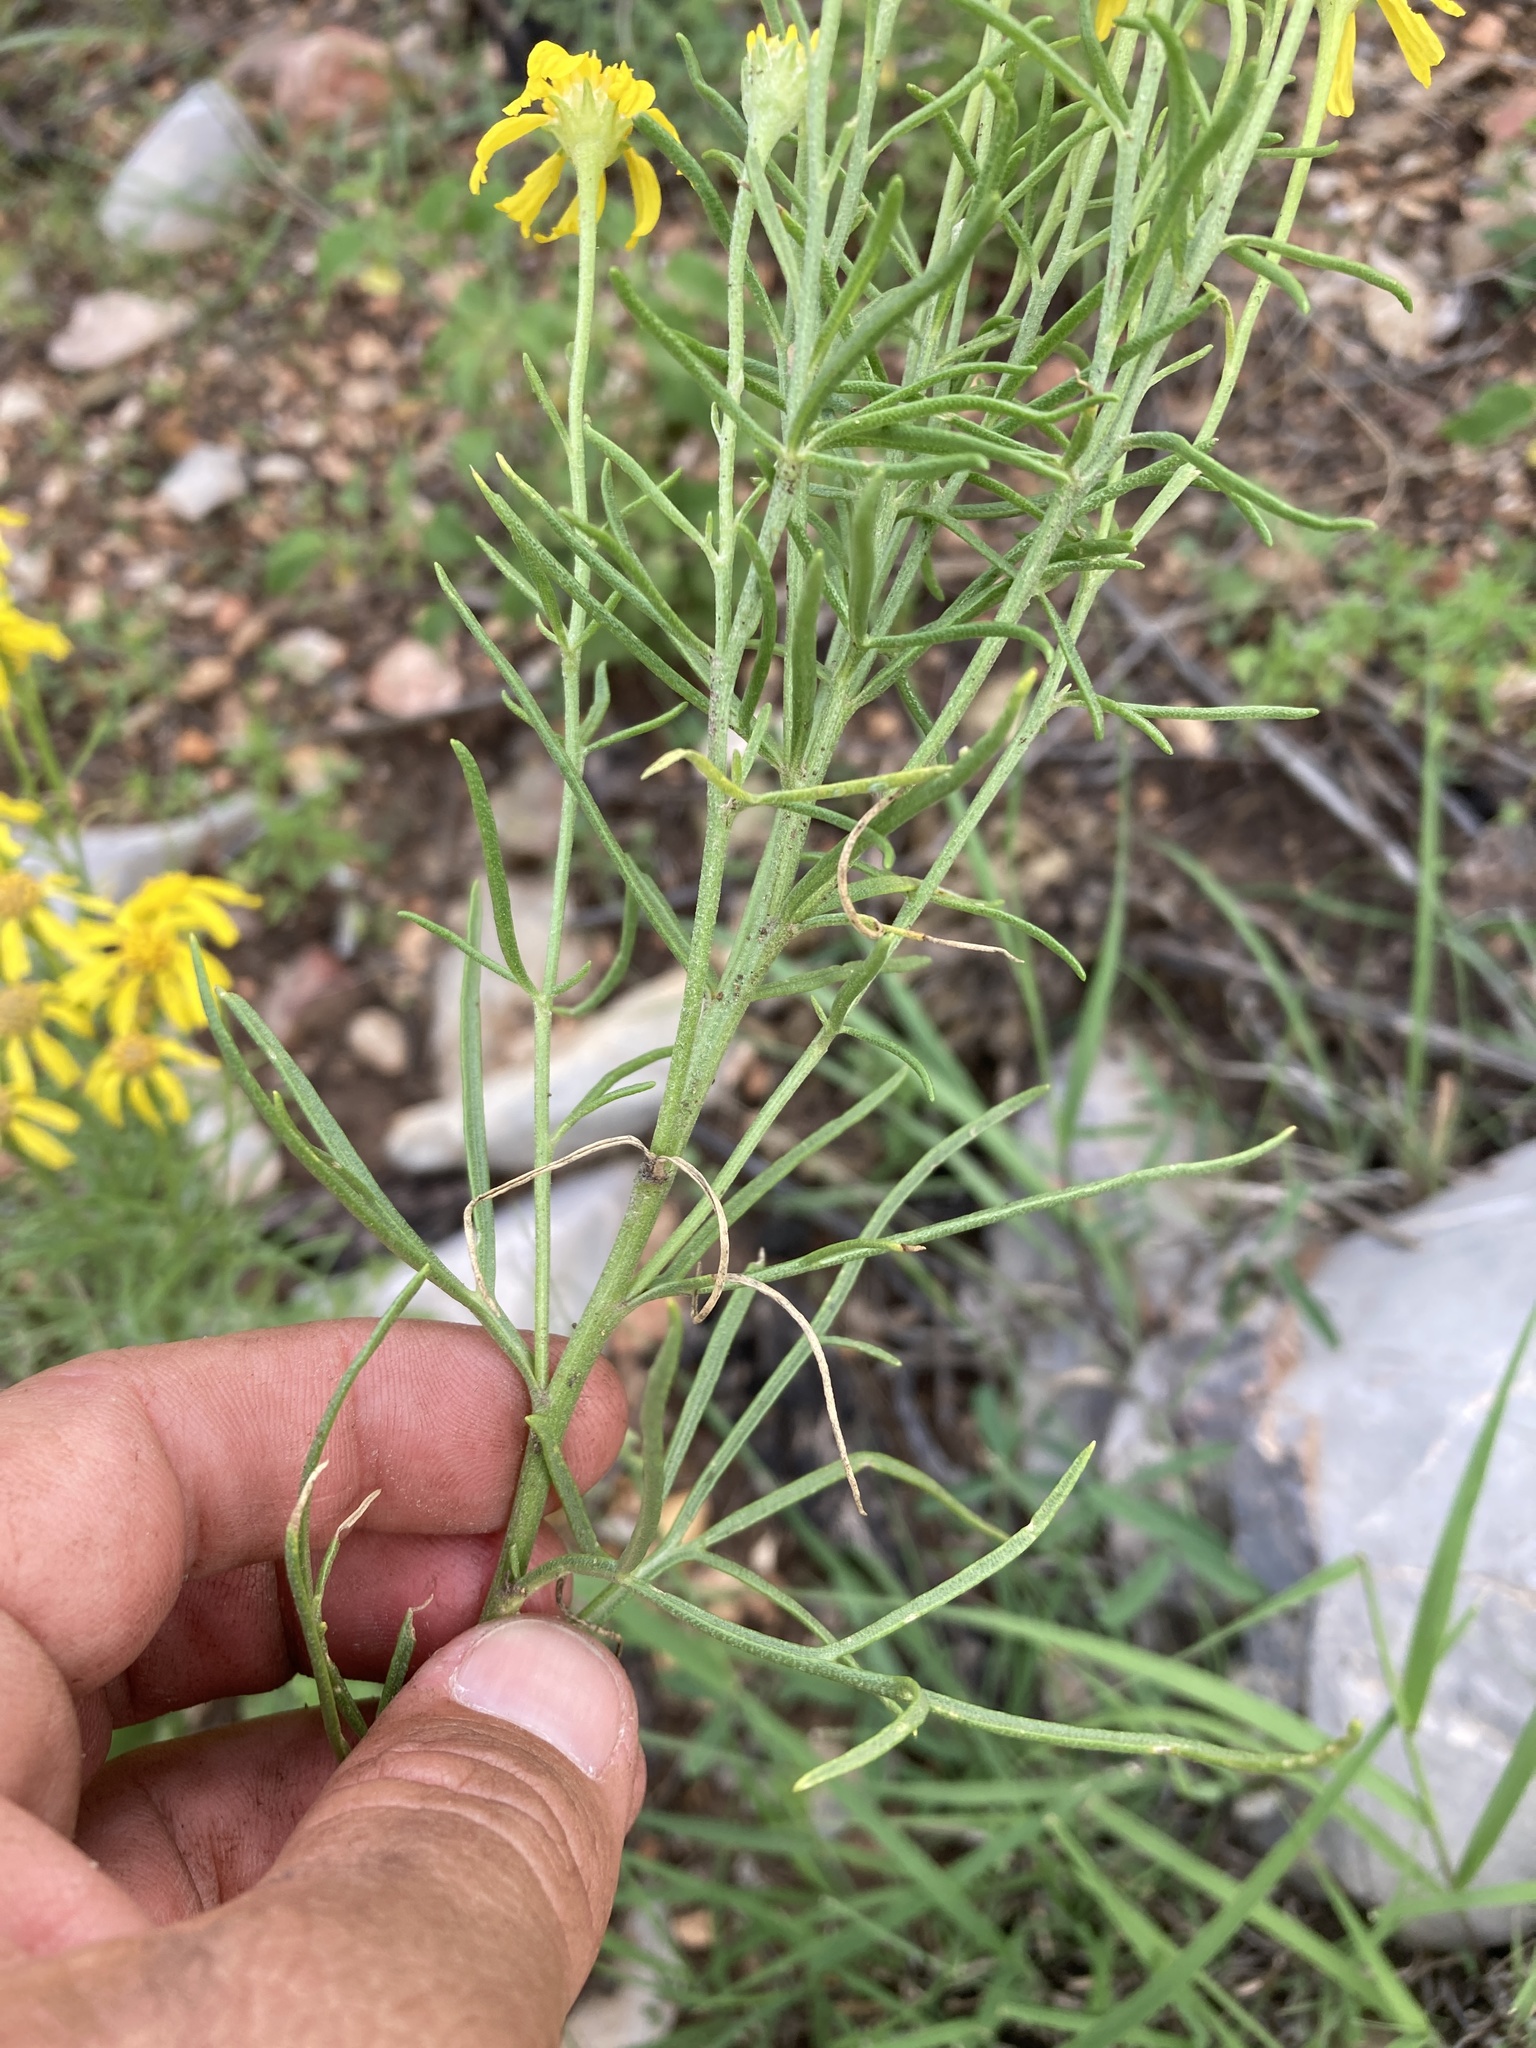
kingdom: Plantae
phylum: Tracheophyta
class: Magnoliopsida
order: Asterales
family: Asteraceae
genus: Hymenoxys
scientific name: Hymenoxys richardsonii
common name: Pingue rubberweed
